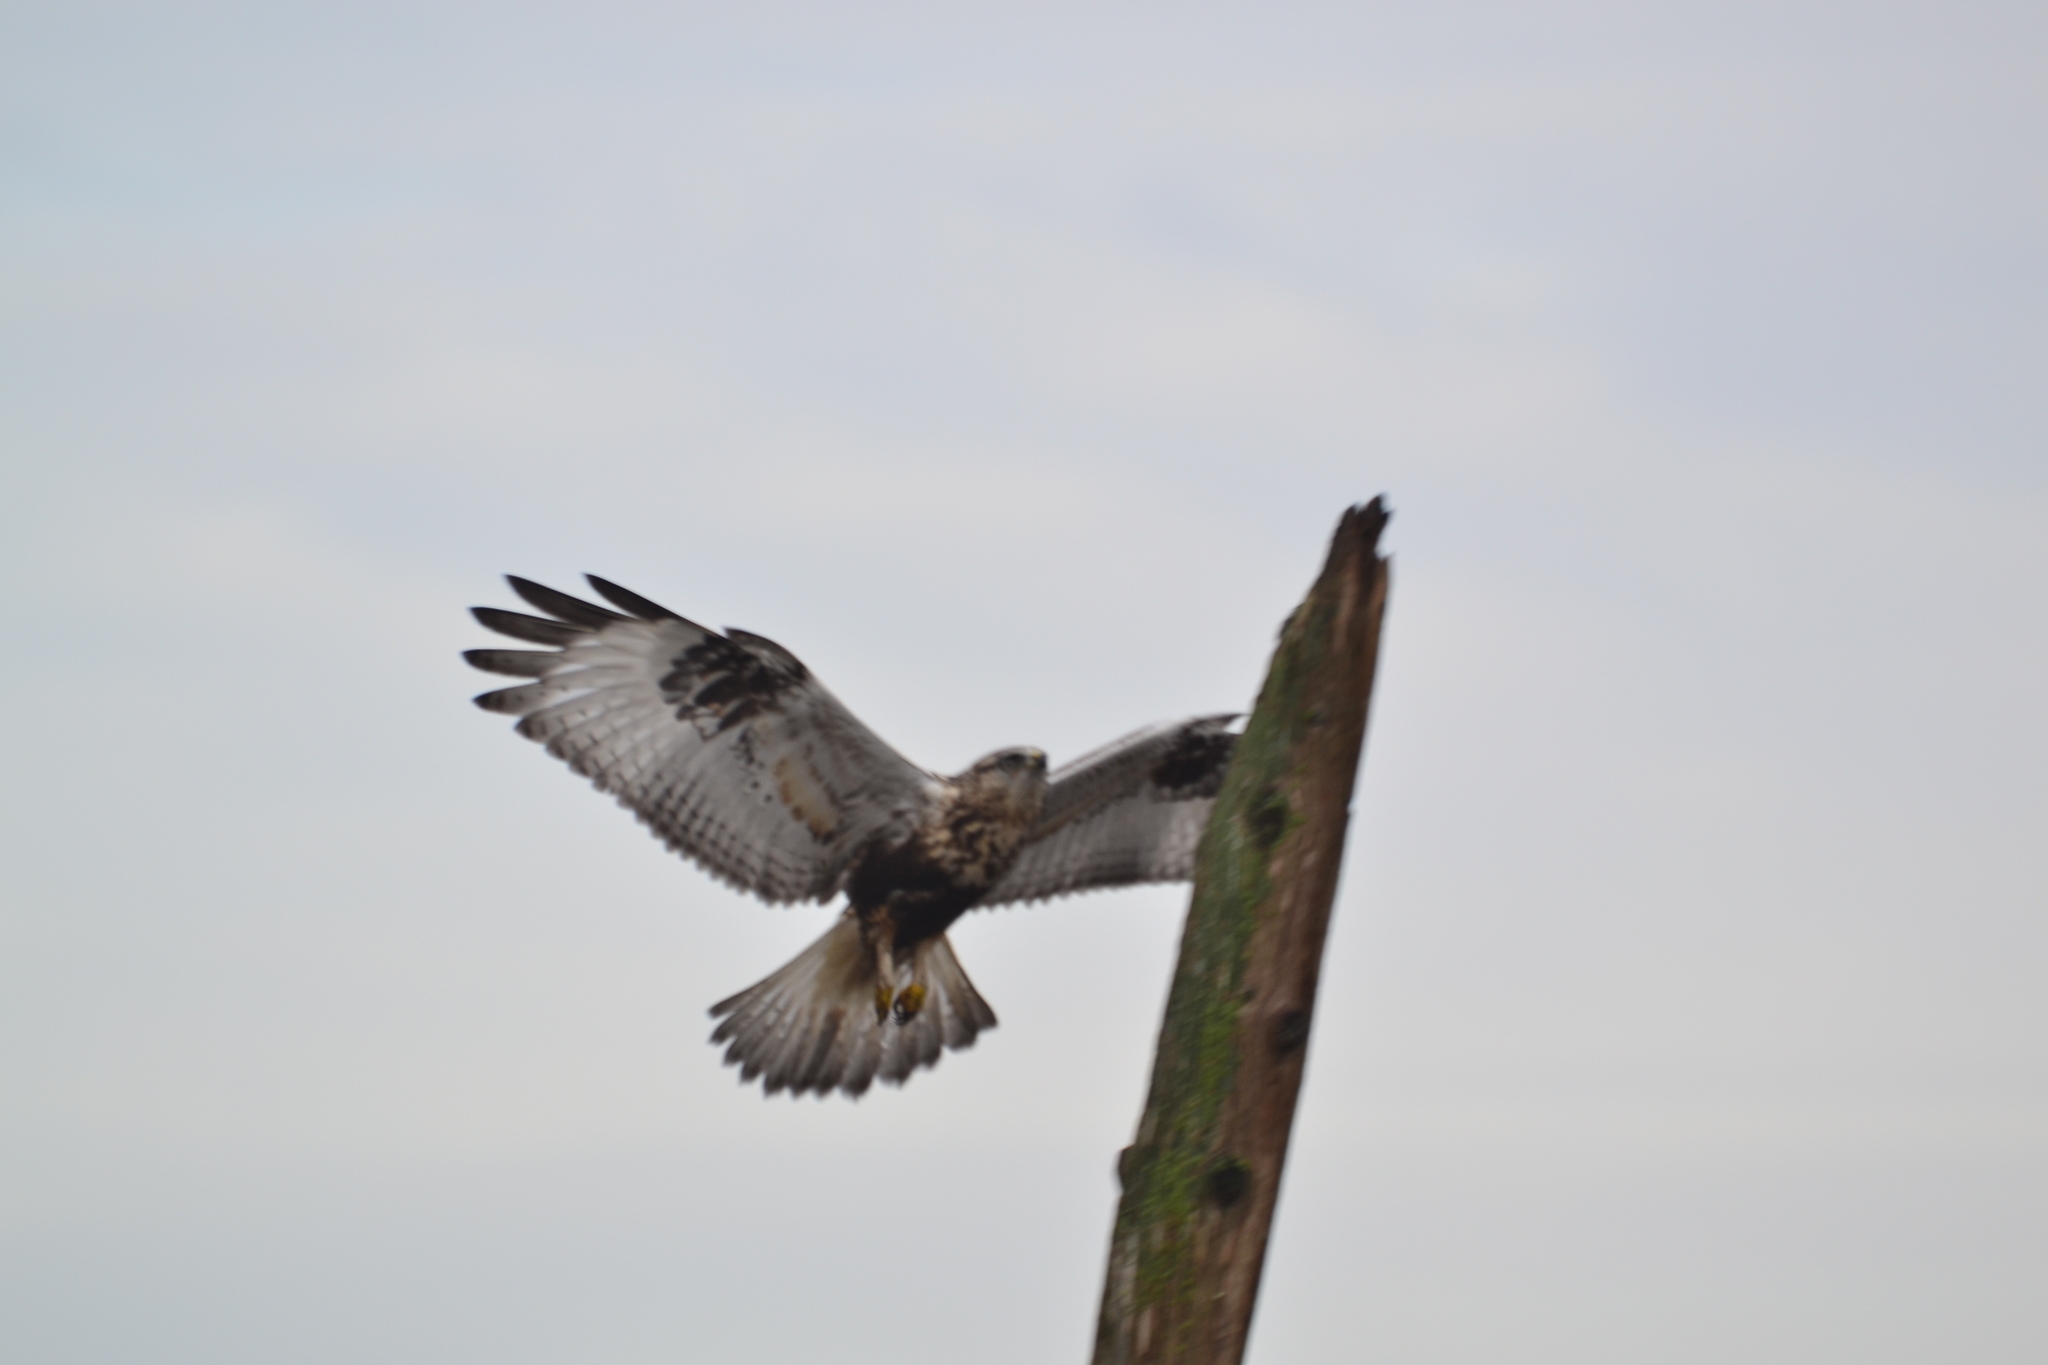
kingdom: Animalia
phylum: Chordata
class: Aves
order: Accipitriformes
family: Accipitridae
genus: Buteo
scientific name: Buteo lagopus
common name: Rough-legged buzzard
